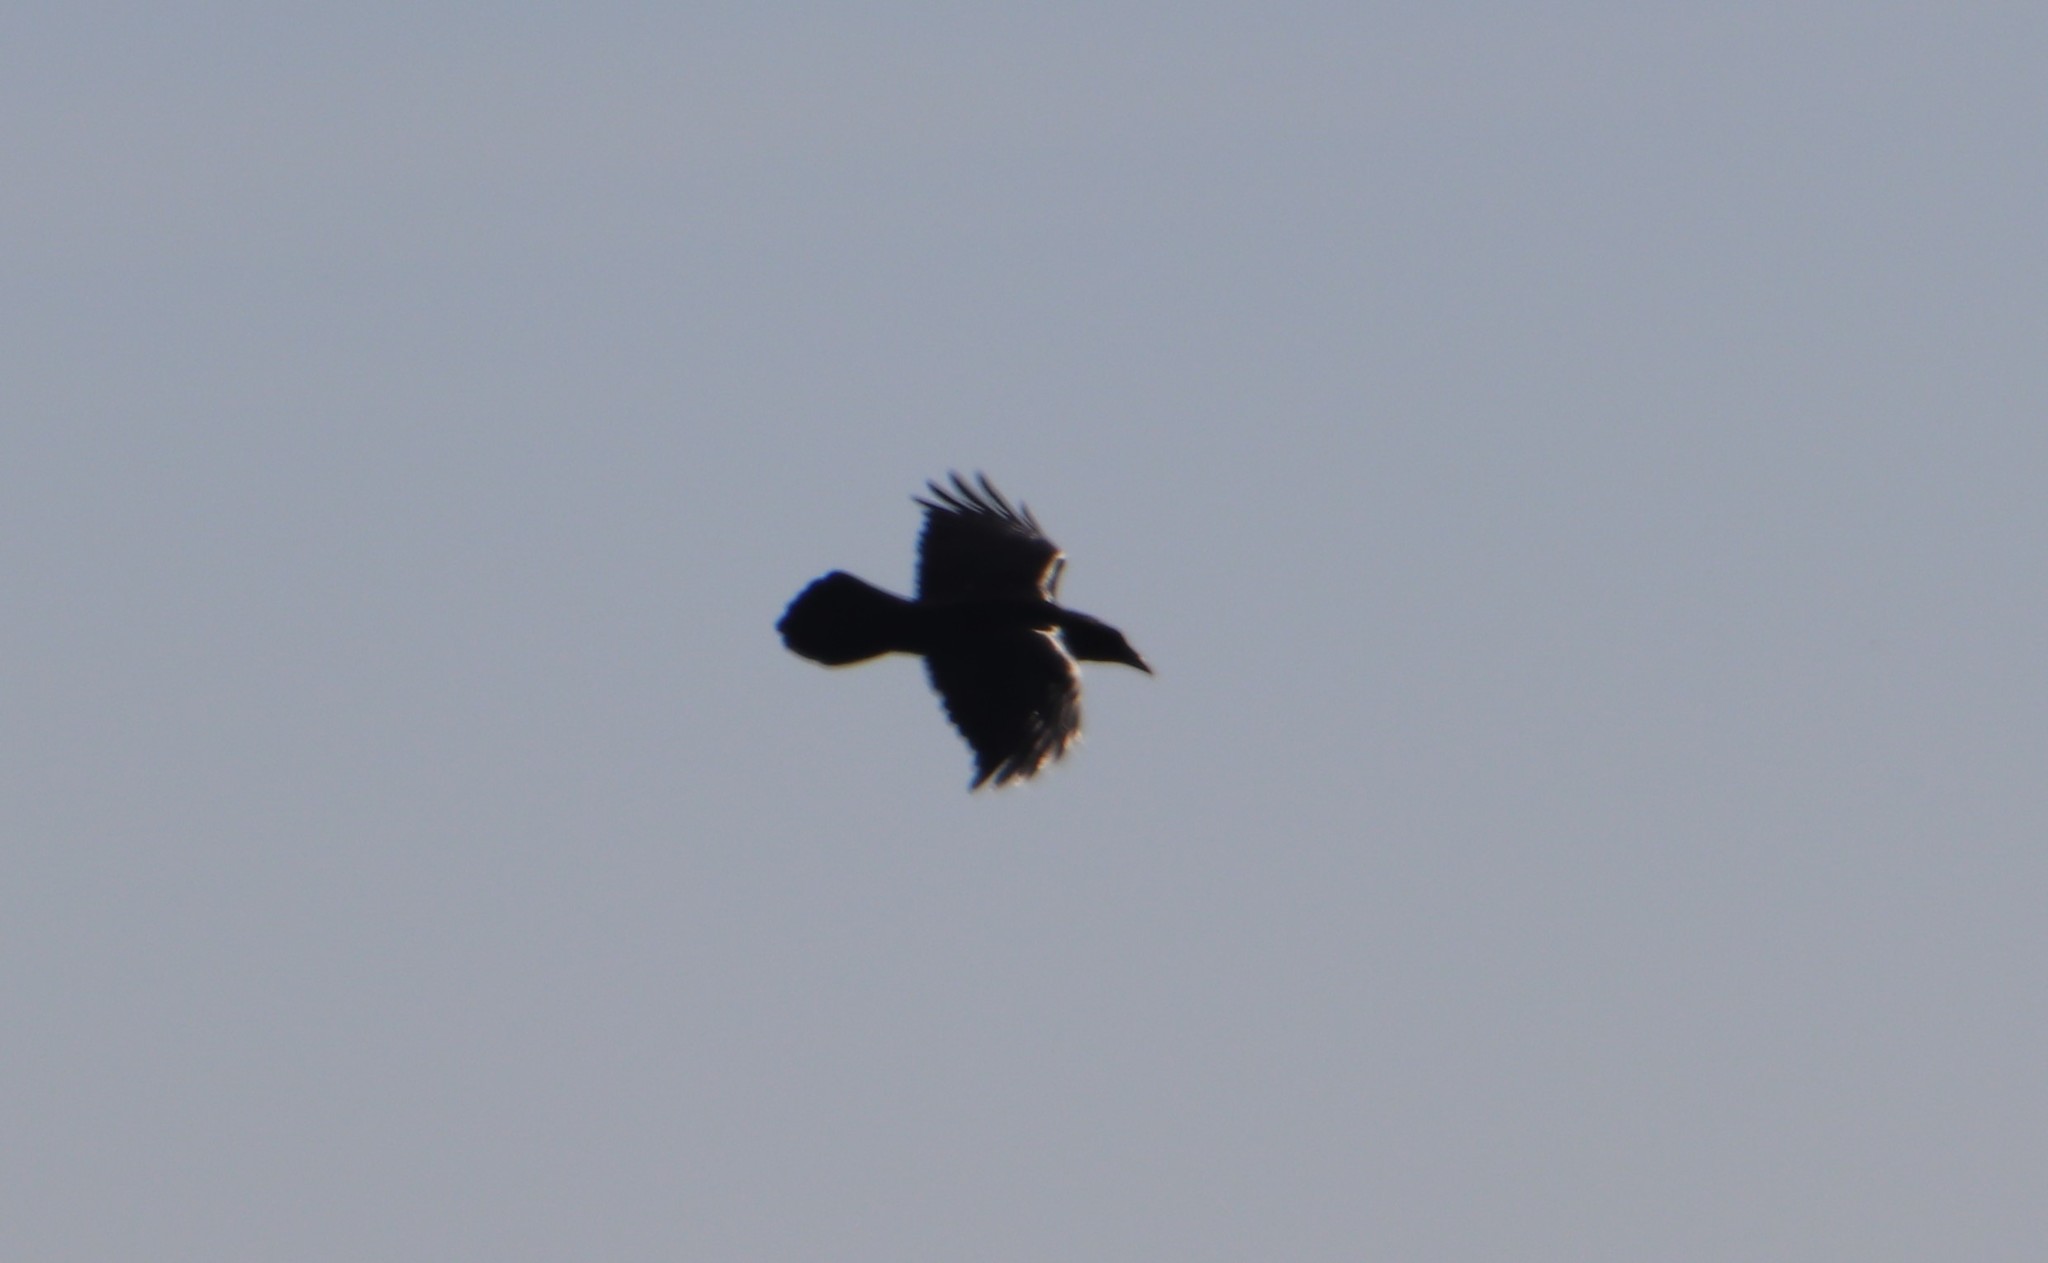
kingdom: Animalia
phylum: Chordata
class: Aves
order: Passeriformes
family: Corvidae
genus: Corvus
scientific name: Corvus corax
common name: Common raven
